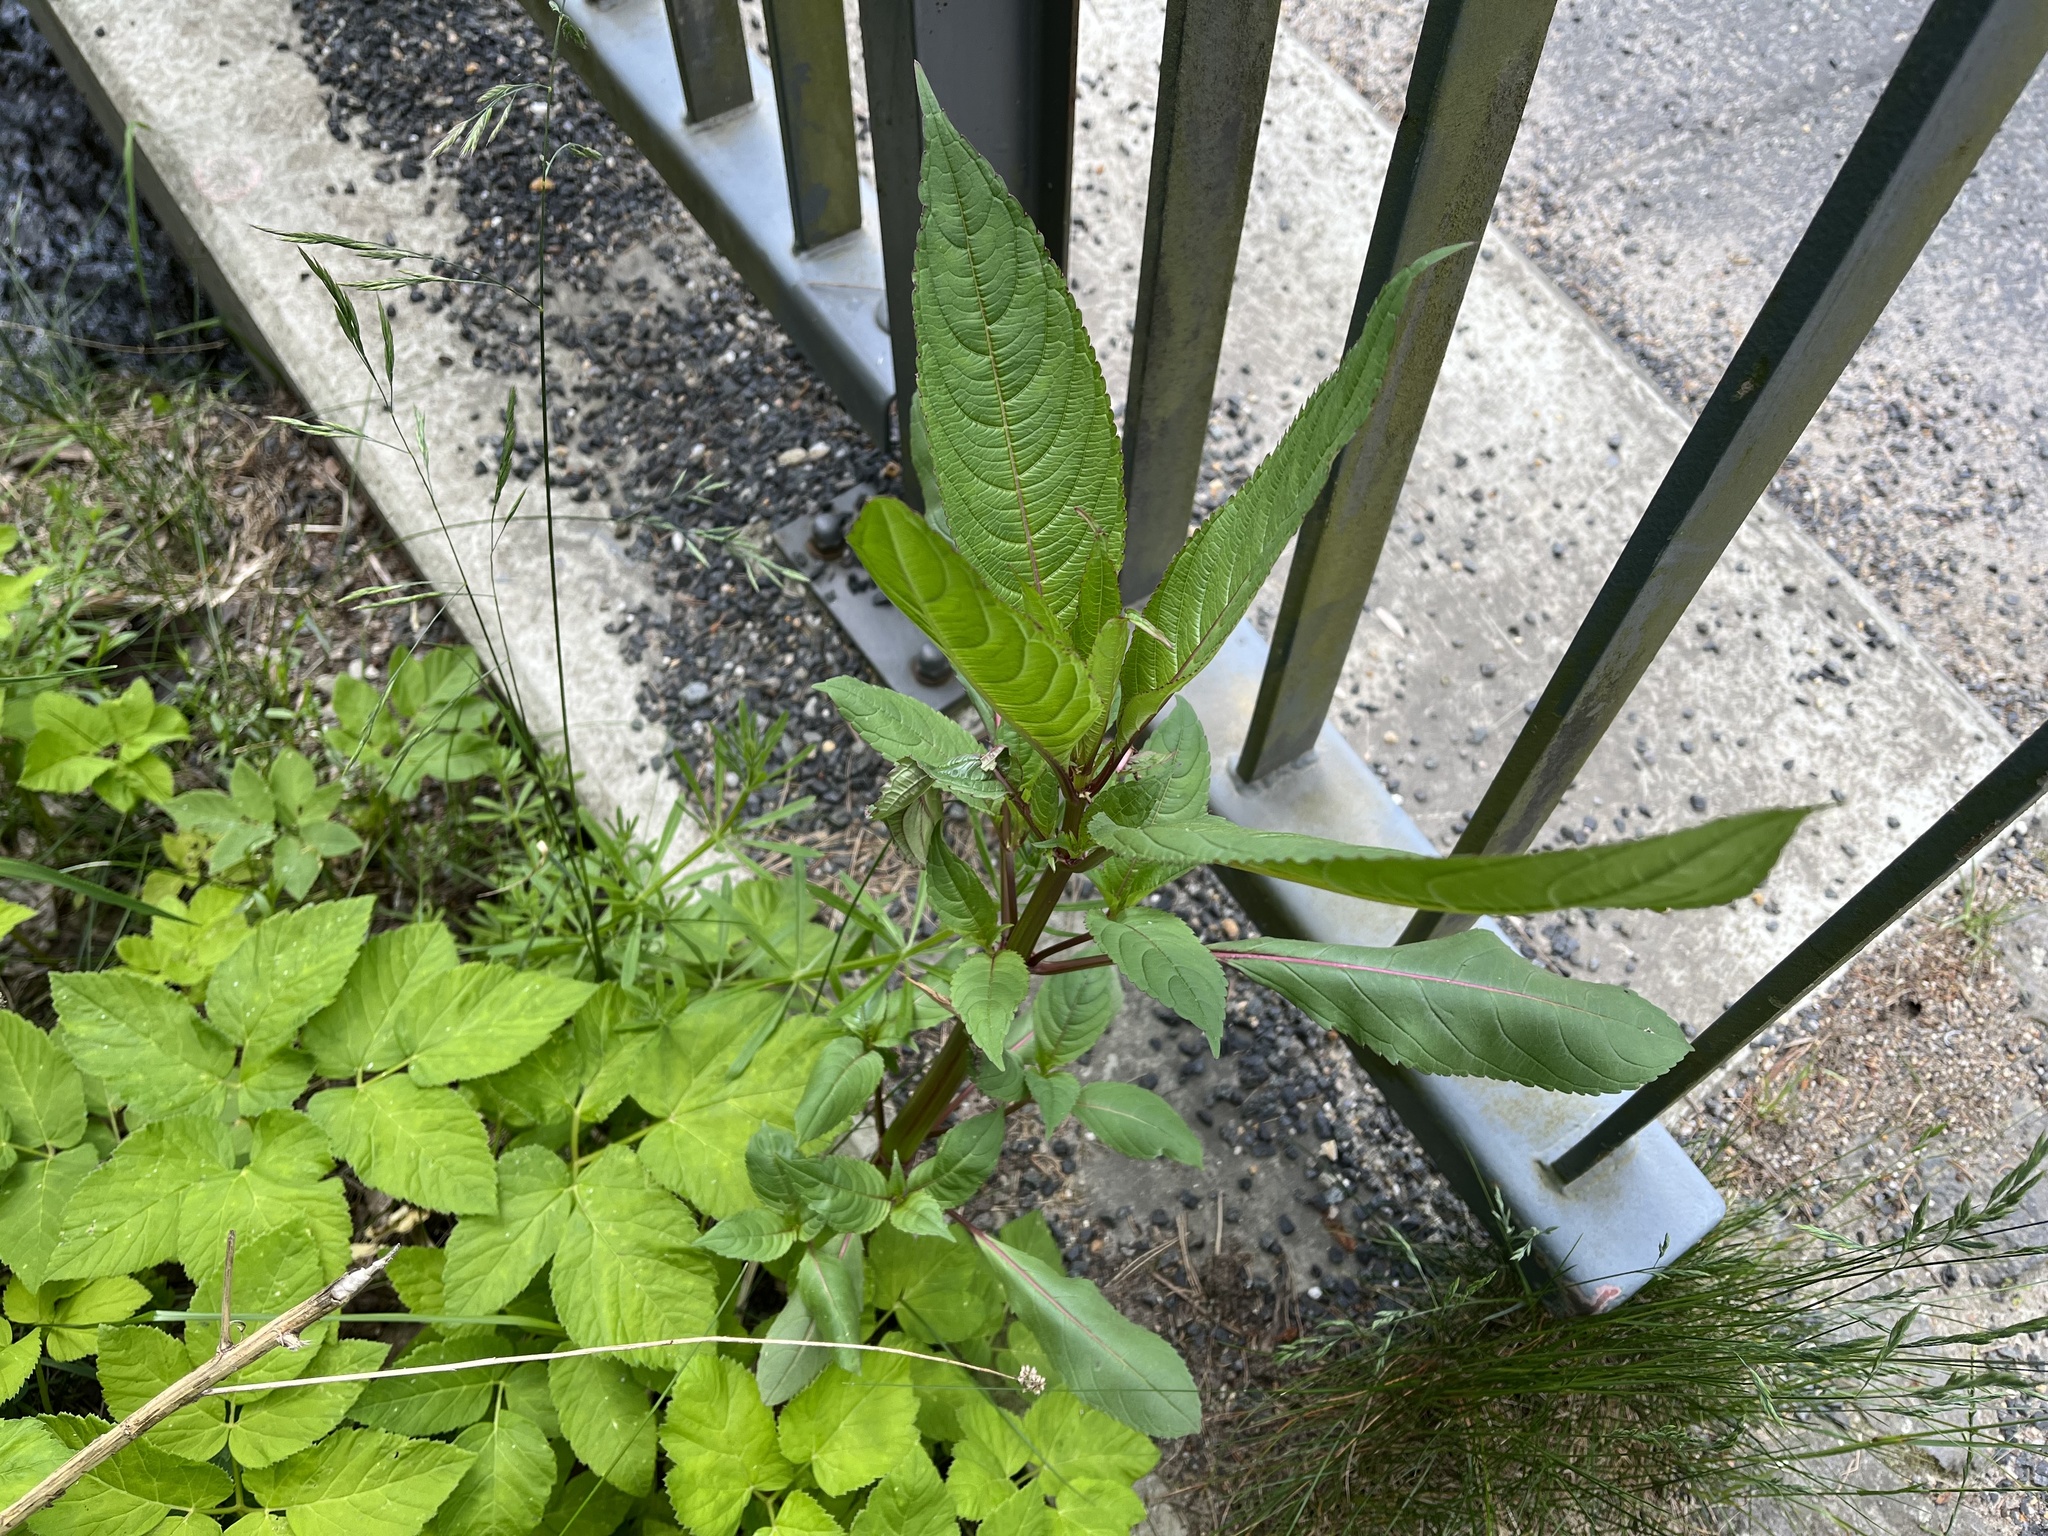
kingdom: Plantae
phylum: Tracheophyta
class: Magnoliopsida
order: Ericales
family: Balsaminaceae
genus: Impatiens
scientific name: Impatiens glandulifera
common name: Himalayan balsam
